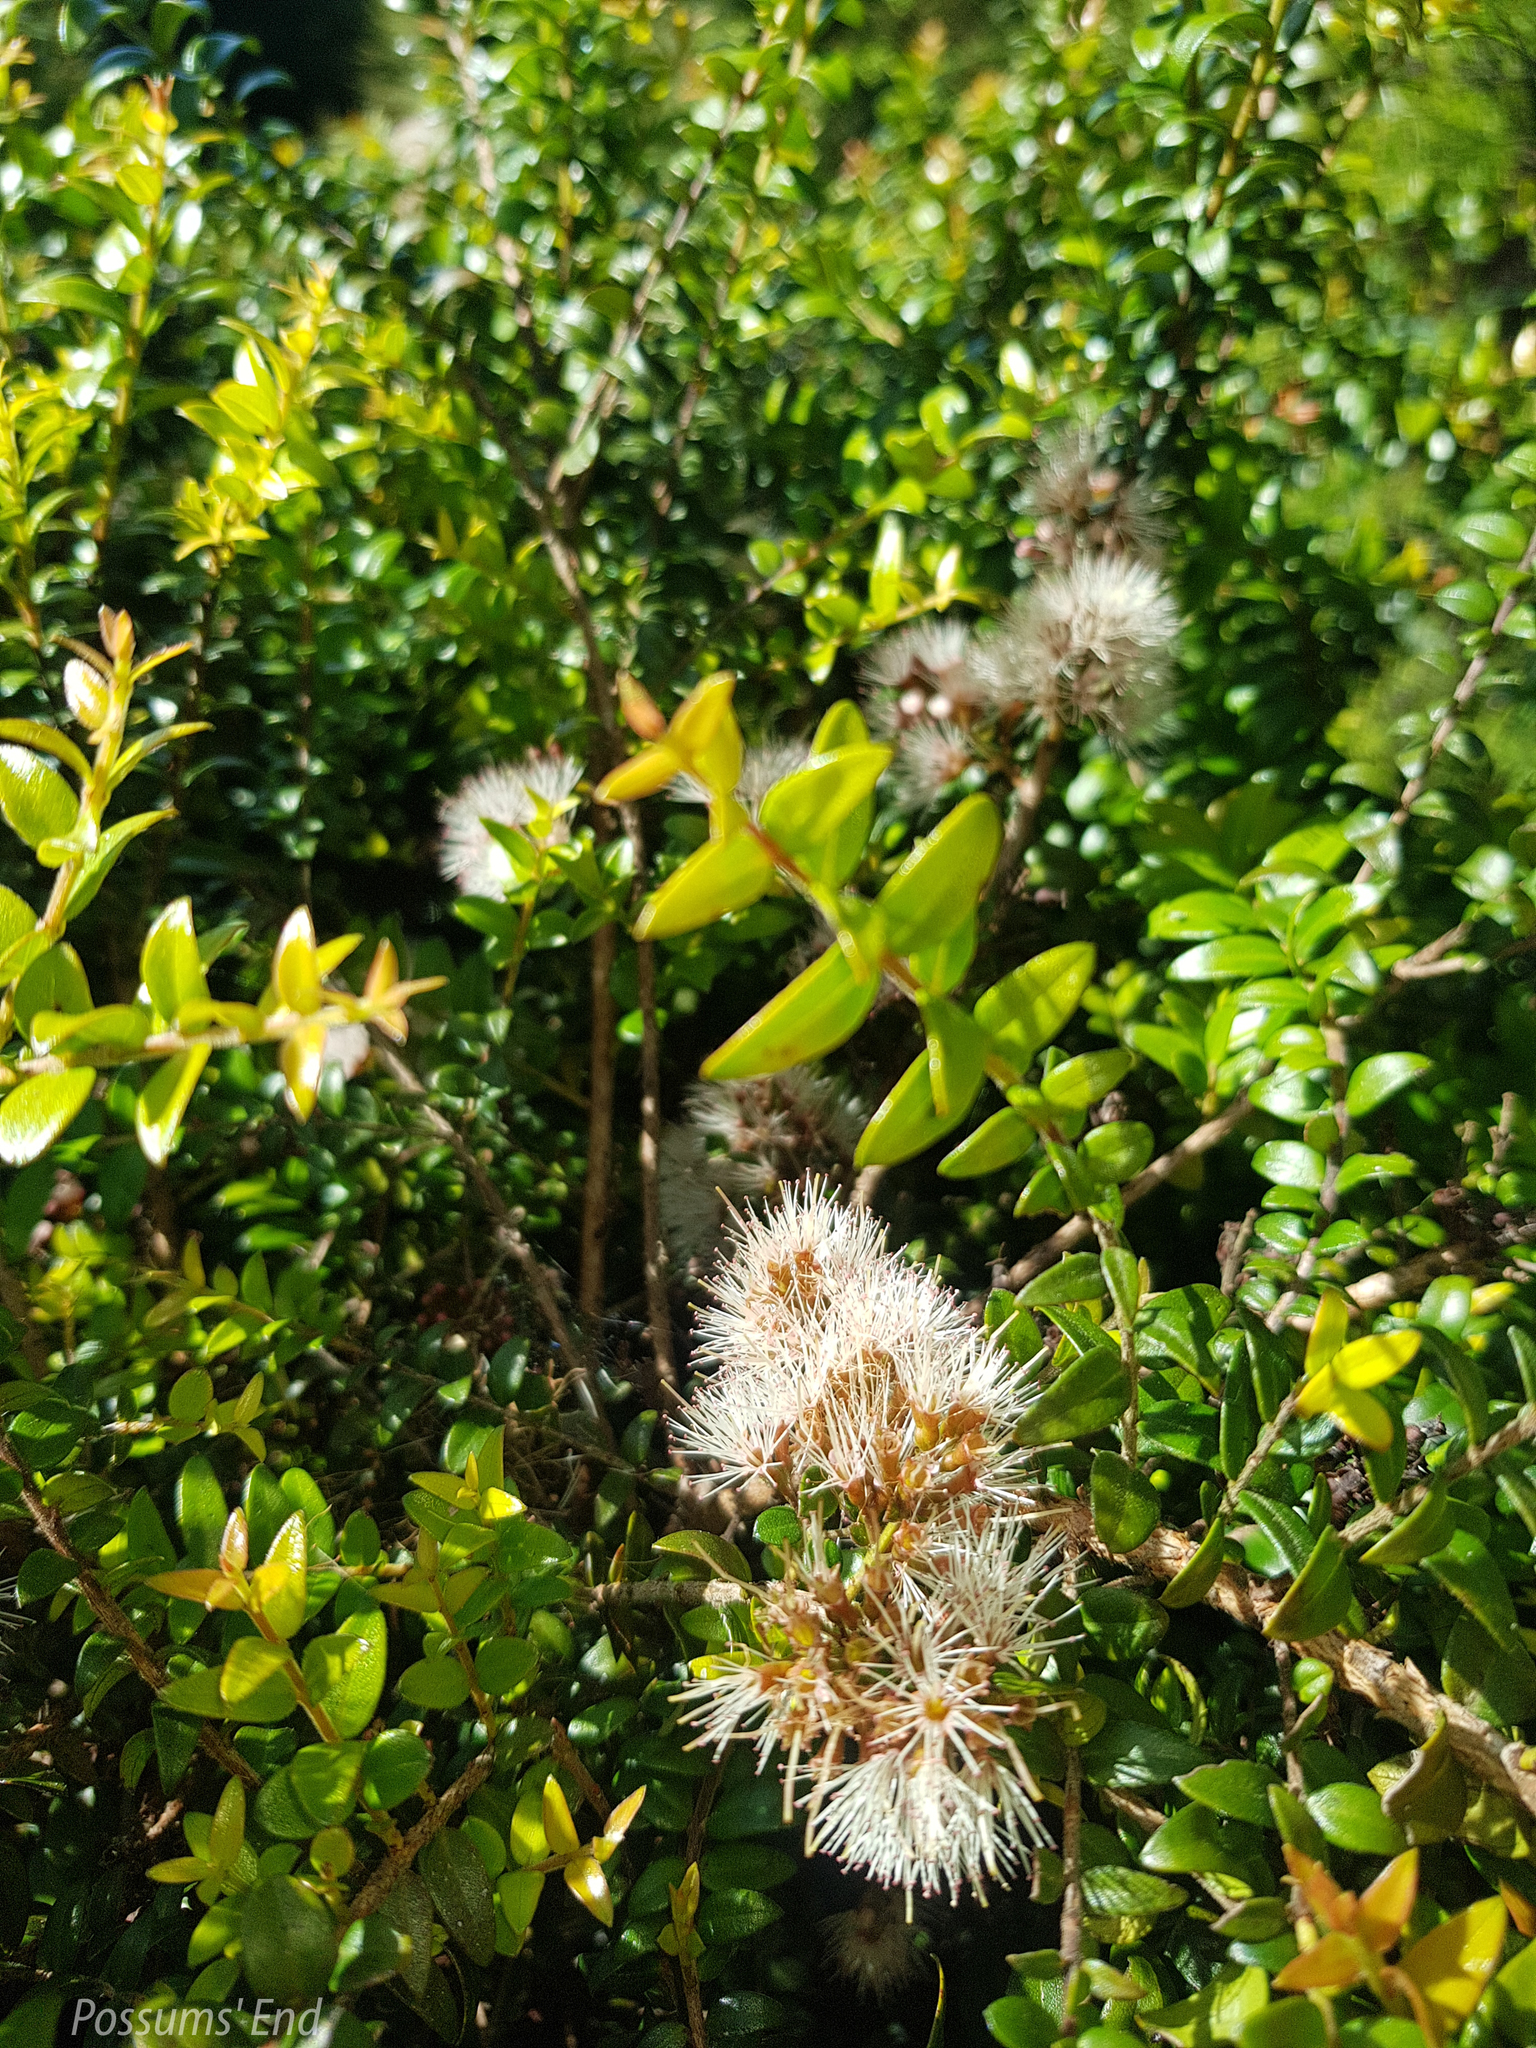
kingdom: Plantae
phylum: Tracheophyta
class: Magnoliopsida
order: Myrtales
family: Myrtaceae
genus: Metrosideros
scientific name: Metrosideros diffusa
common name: Small ratavine
